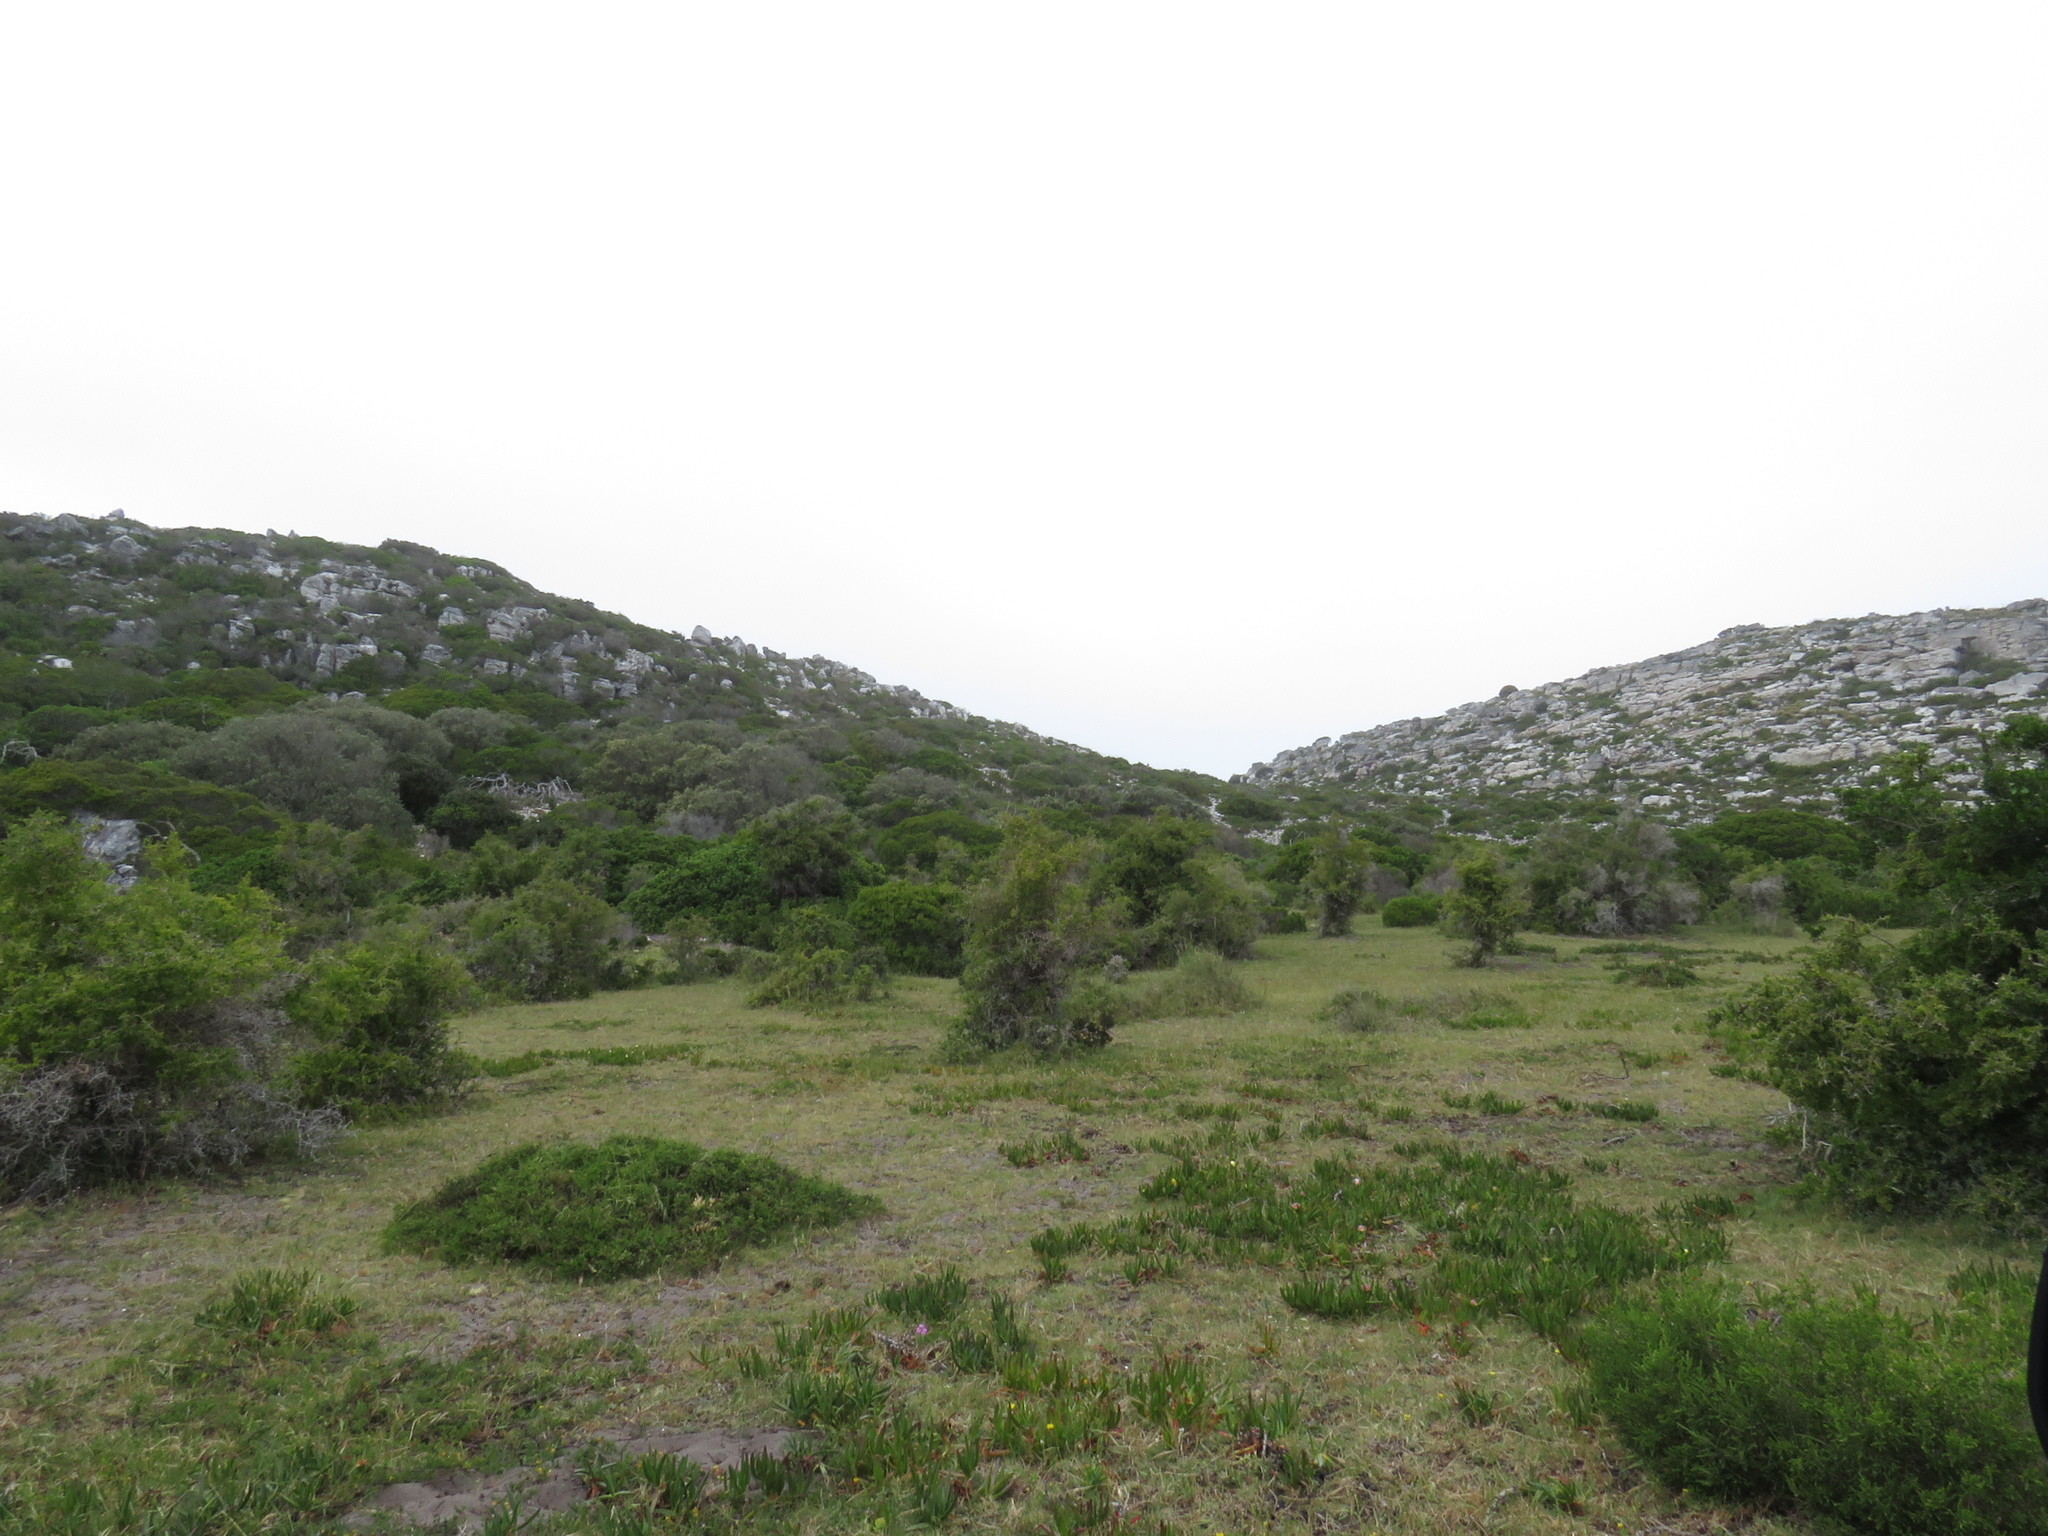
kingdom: Animalia
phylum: Chordata
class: Aves
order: Struthioniformes
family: Struthionidae
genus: Struthio
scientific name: Struthio camelus
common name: Common ostrich
